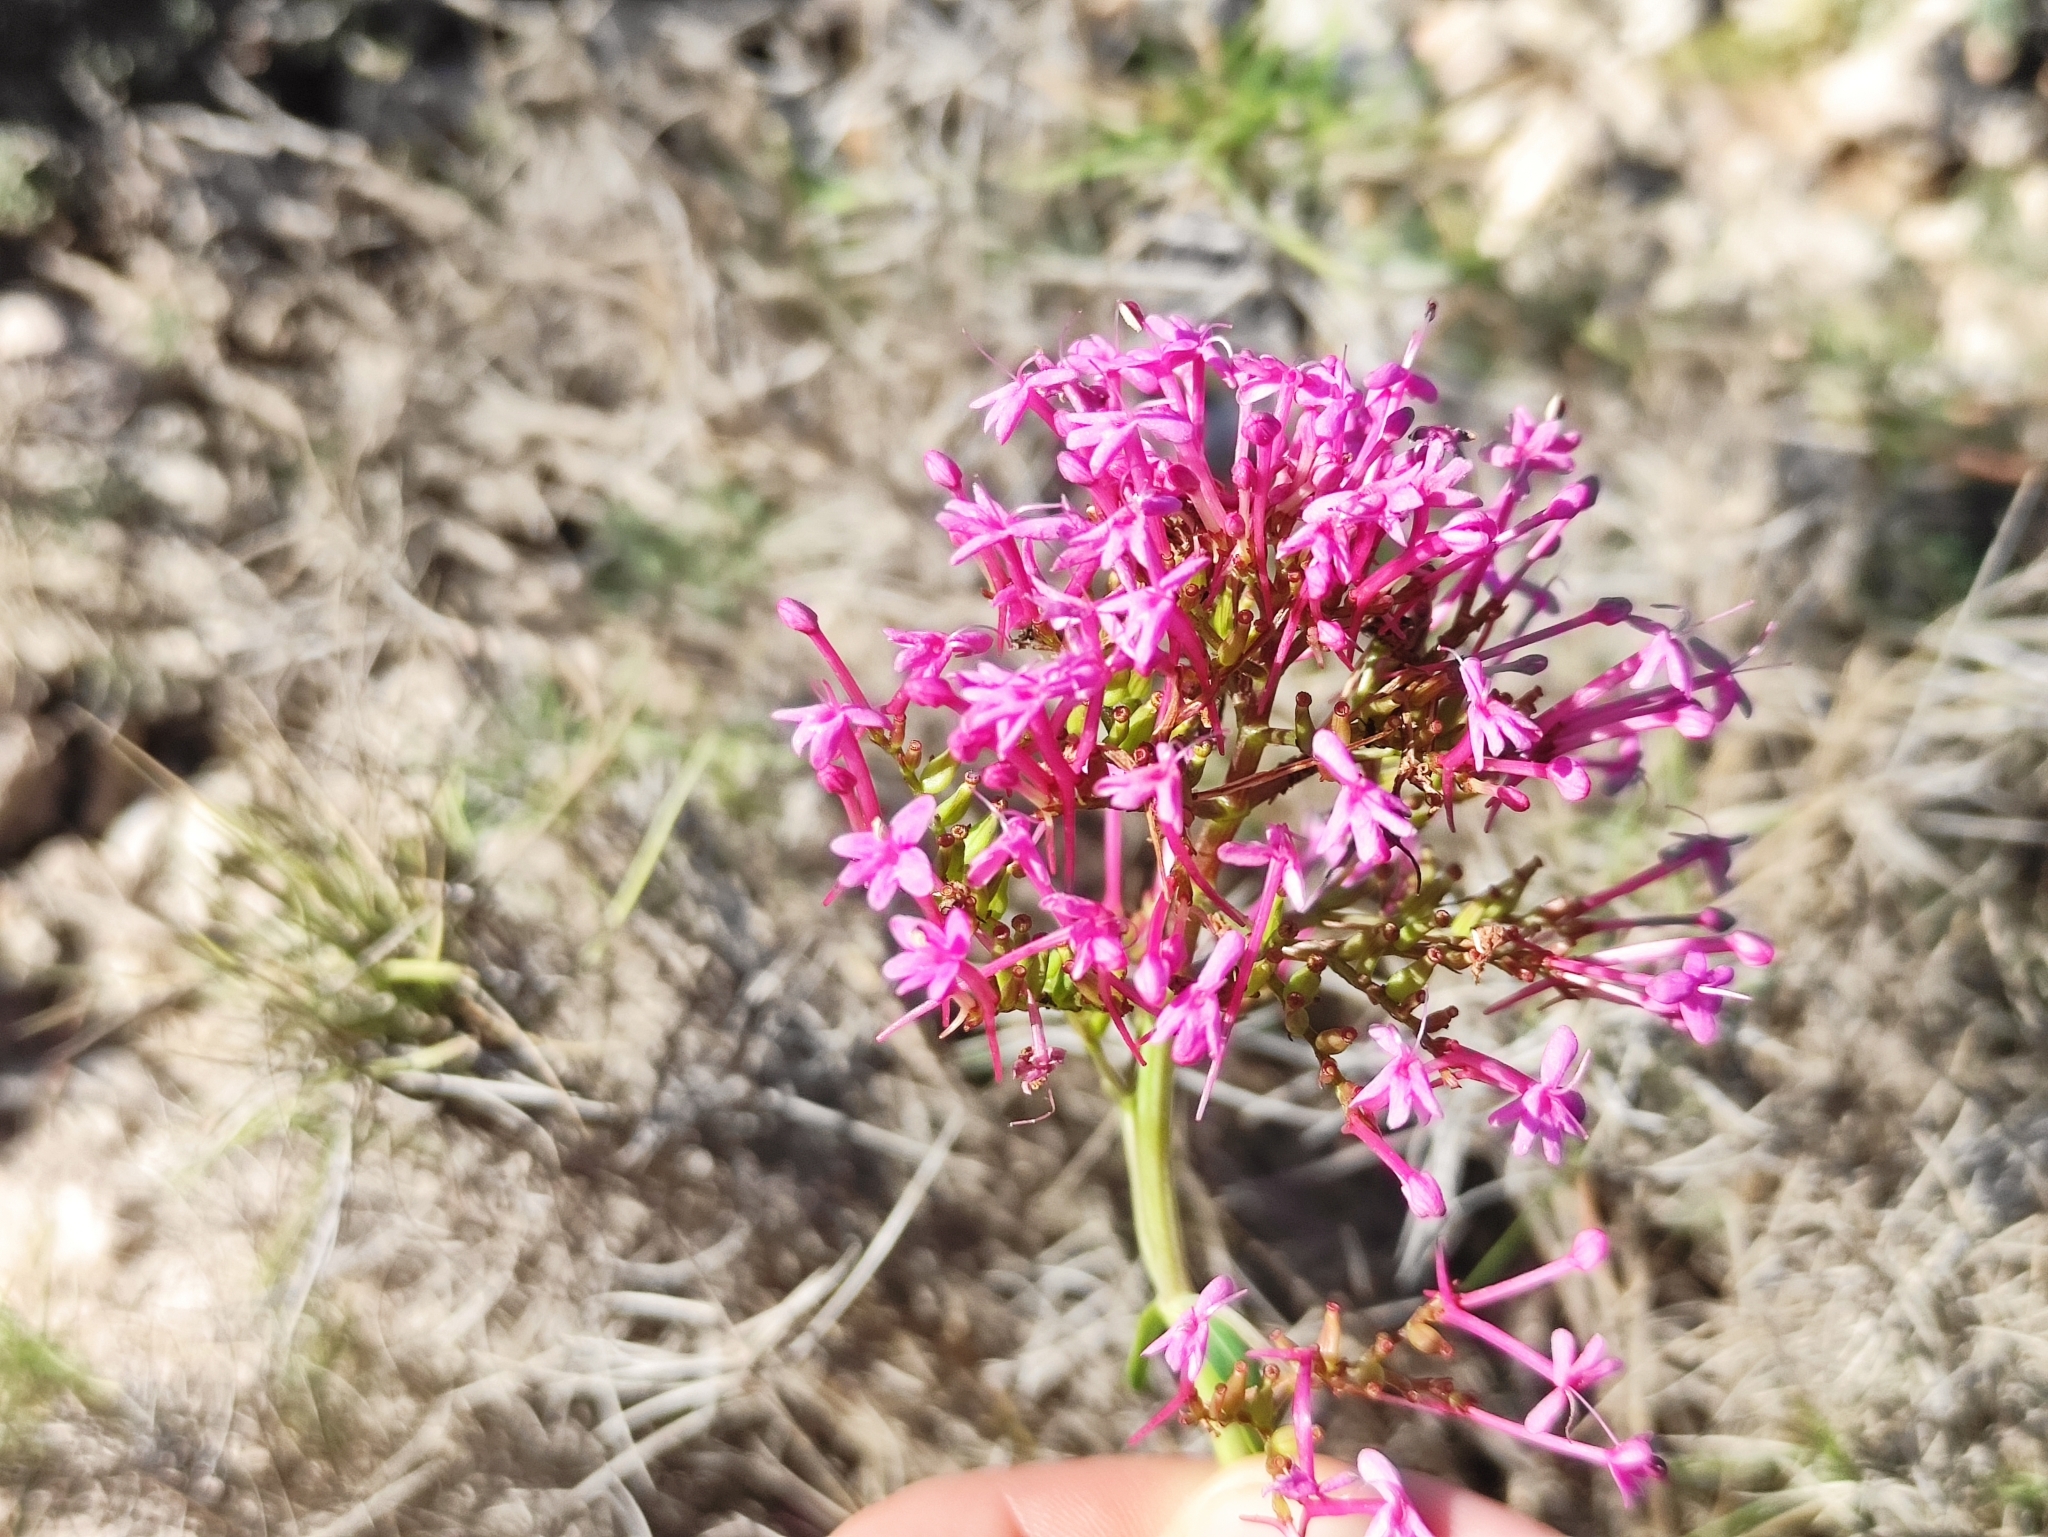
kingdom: Plantae
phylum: Tracheophyta
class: Magnoliopsida
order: Dipsacales
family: Caprifoliaceae
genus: Centranthus
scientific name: Centranthus ruber
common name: Red valerian
